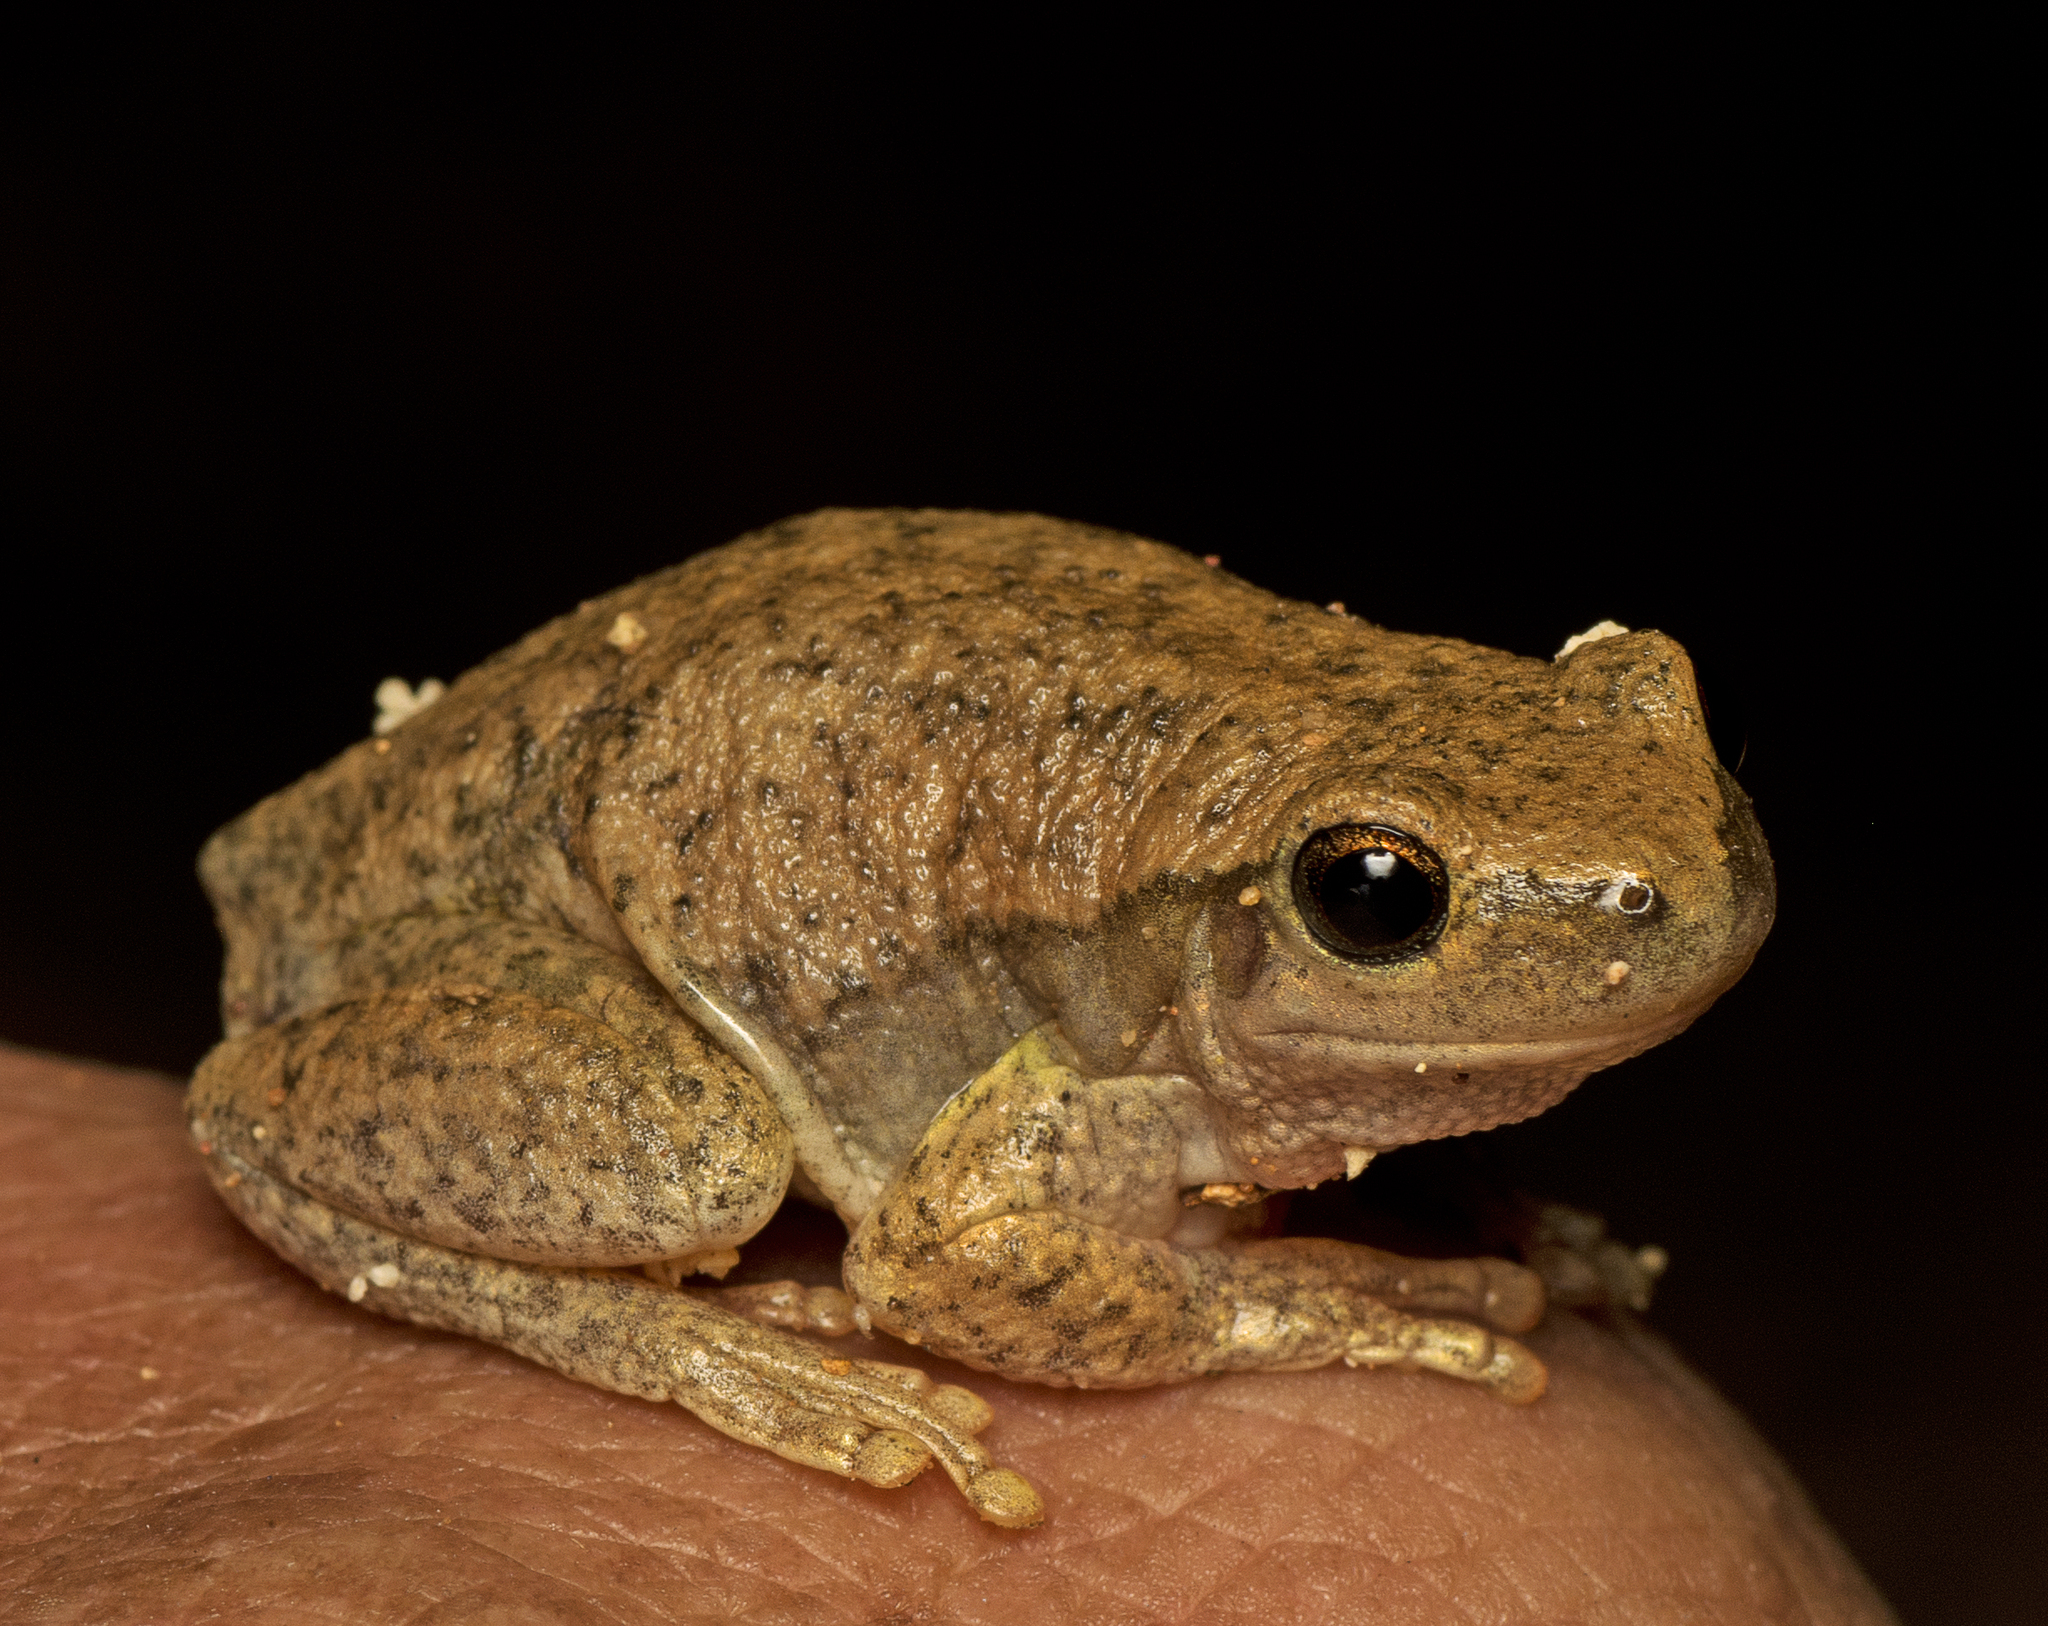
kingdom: Animalia
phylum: Chordata
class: Amphibia
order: Anura
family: Pelodryadidae
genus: Litoria
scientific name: Litoria rubella
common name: Desert tree frog
